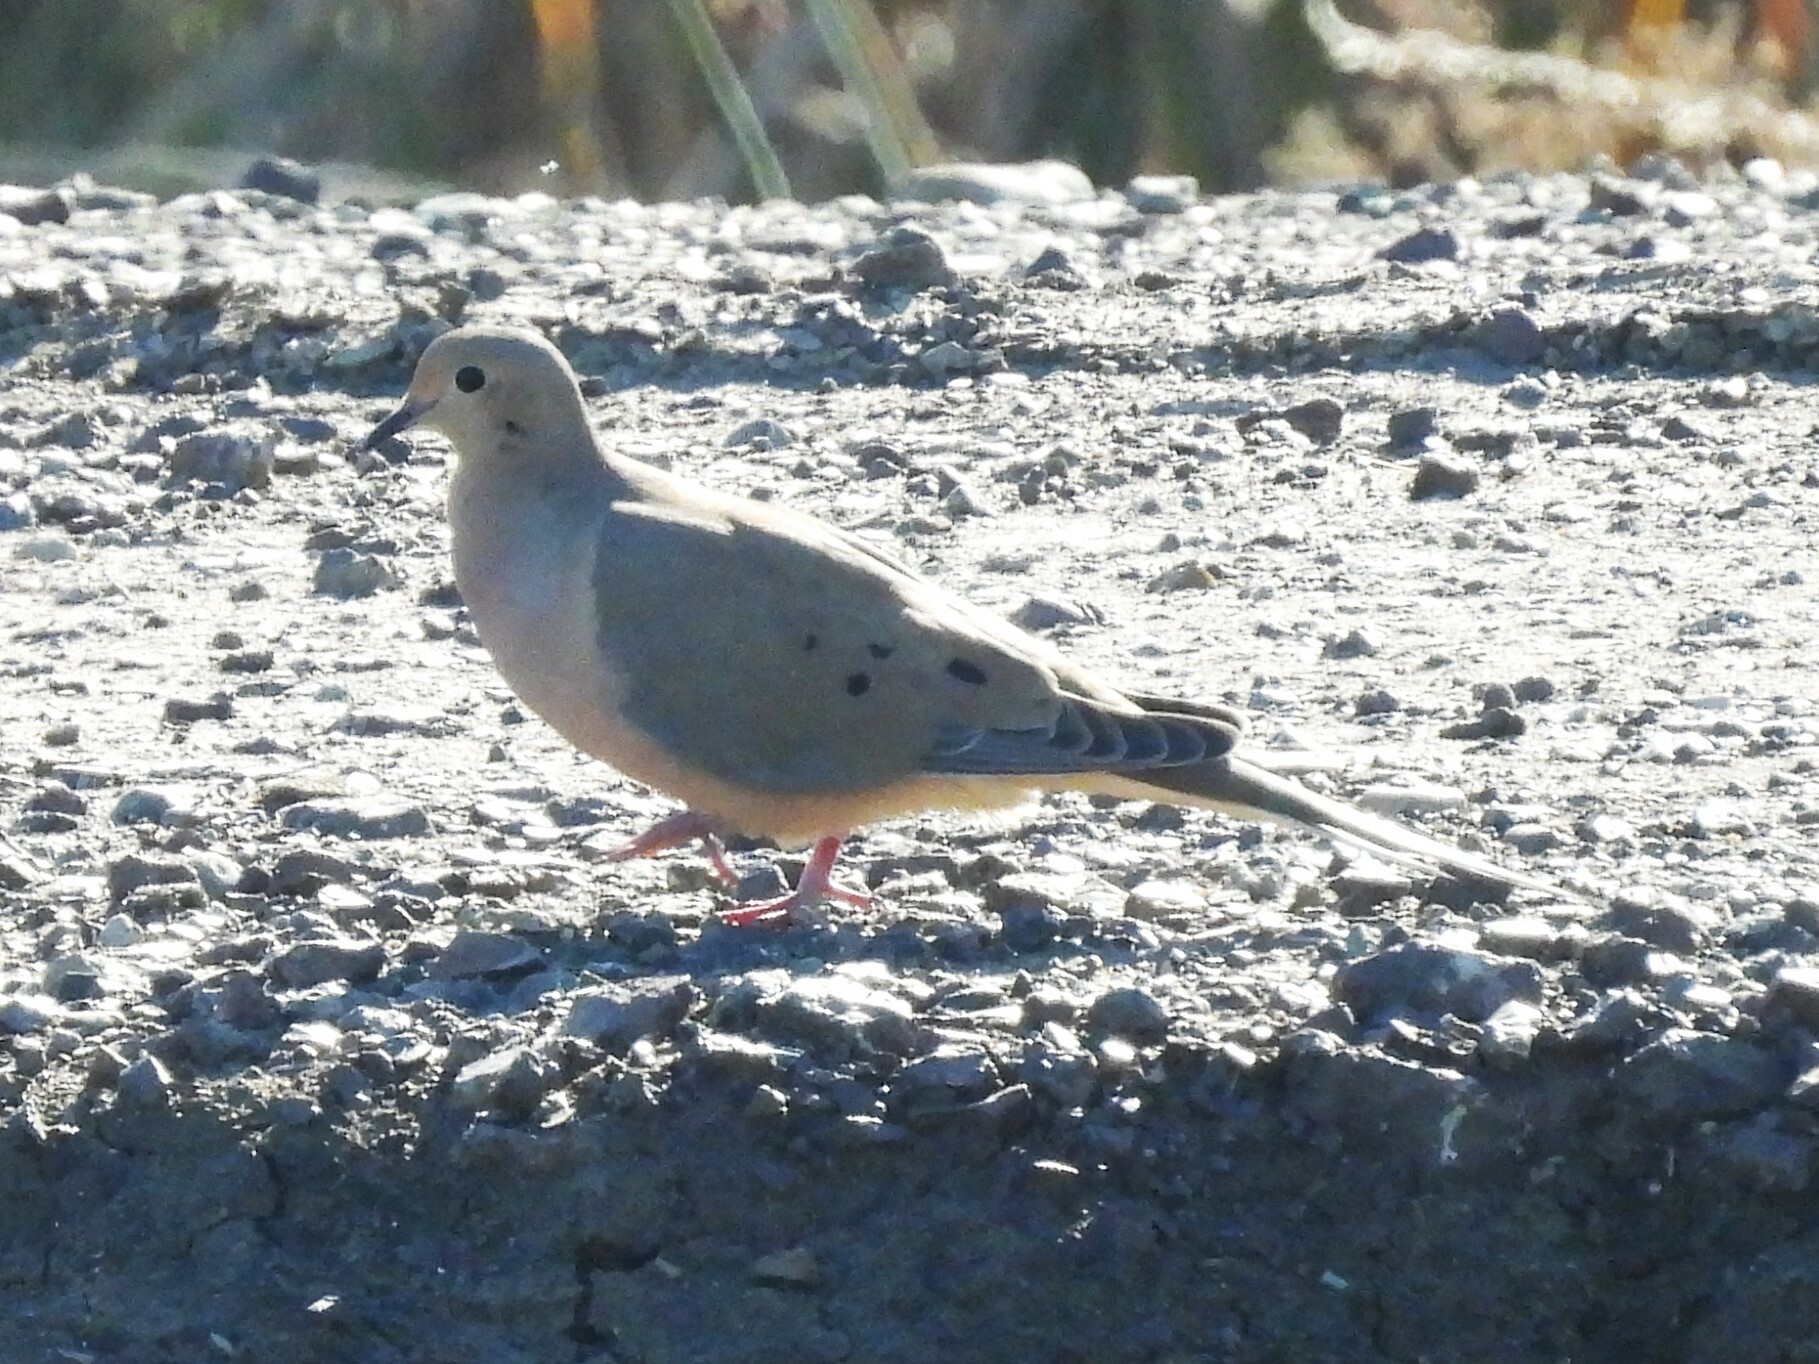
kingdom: Animalia
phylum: Chordata
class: Aves
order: Columbiformes
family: Columbidae
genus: Zenaida
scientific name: Zenaida macroura
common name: Mourning dove
